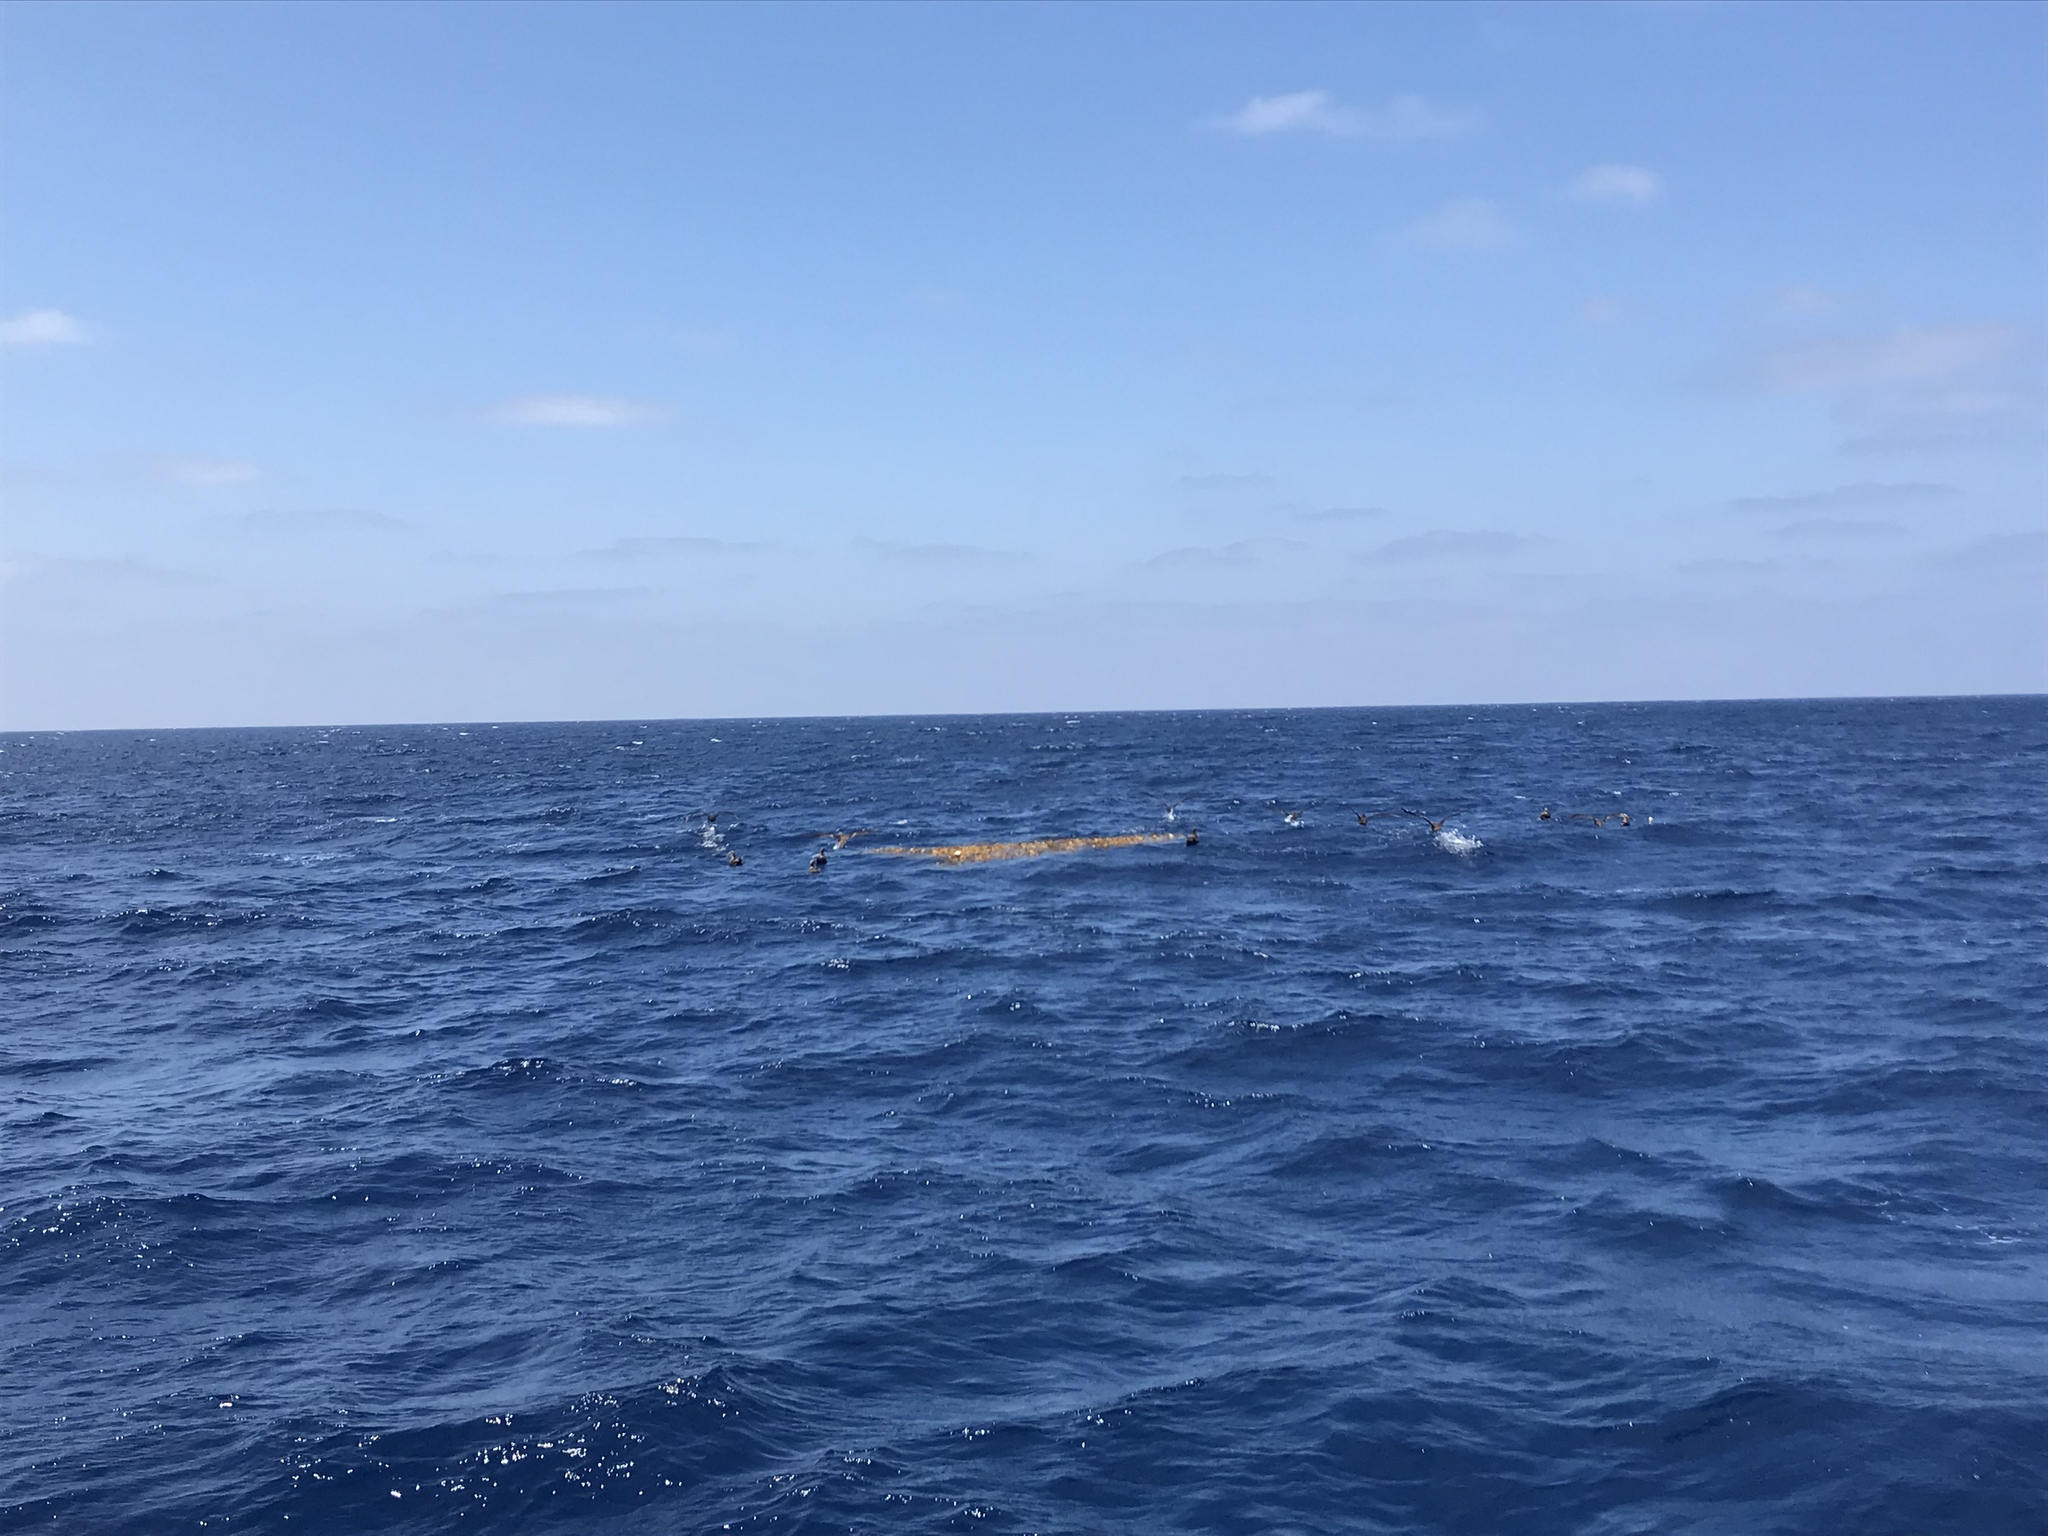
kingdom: Animalia
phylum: Chordata
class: Aves
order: Procellariiformes
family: Diomedeidae
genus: Phoebastria
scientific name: Phoebastria nigripes
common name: Black-footed albatross
